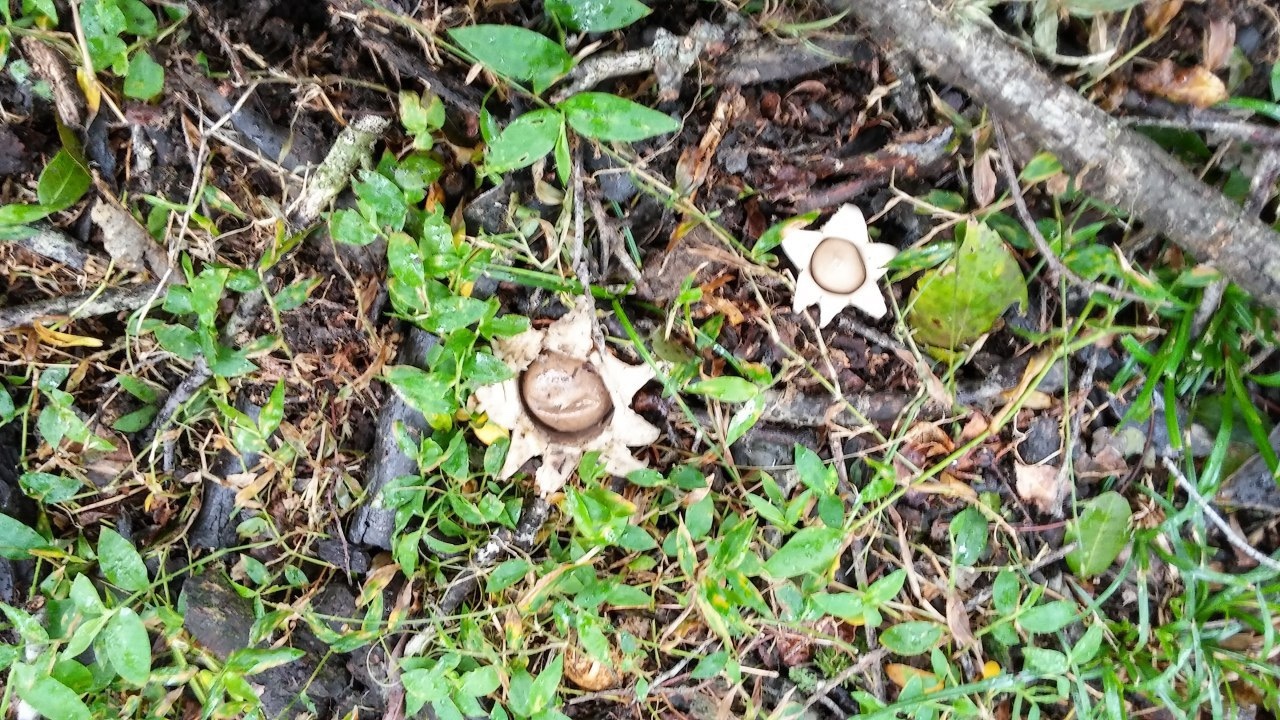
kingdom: Fungi
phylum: Basidiomycota
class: Agaricomycetes
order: Geastrales
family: Geastraceae
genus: Geastrum
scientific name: Geastrum saccatum
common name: Rounded earthstar
